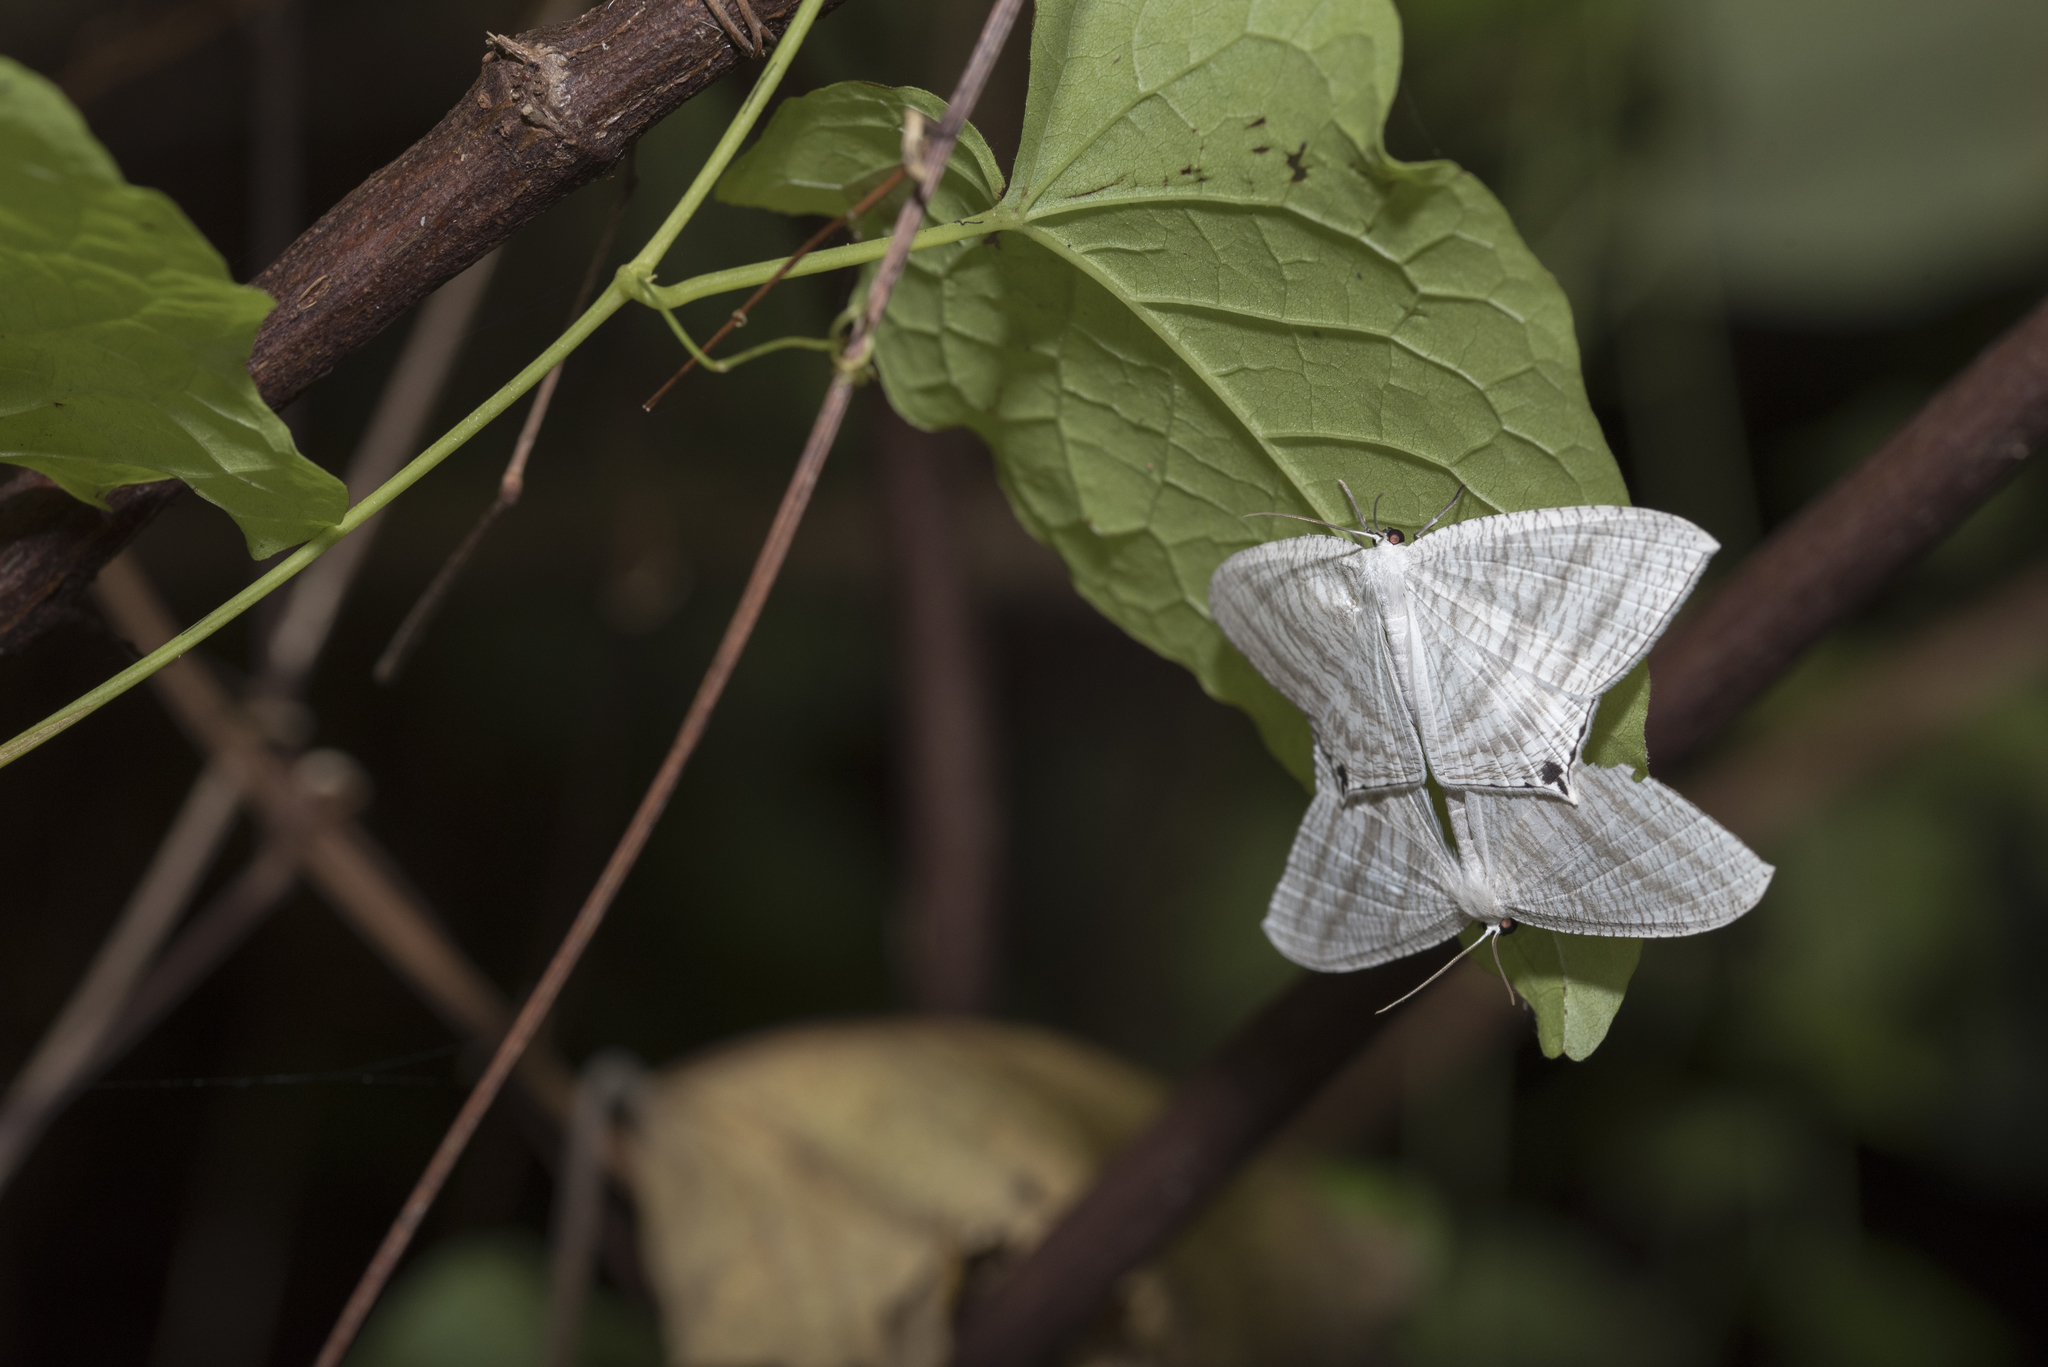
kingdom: Animalia
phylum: Arthropoda
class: Insecta
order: Lepidoptera
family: Uraniidae
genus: Micronia
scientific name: Micronia aculeata
